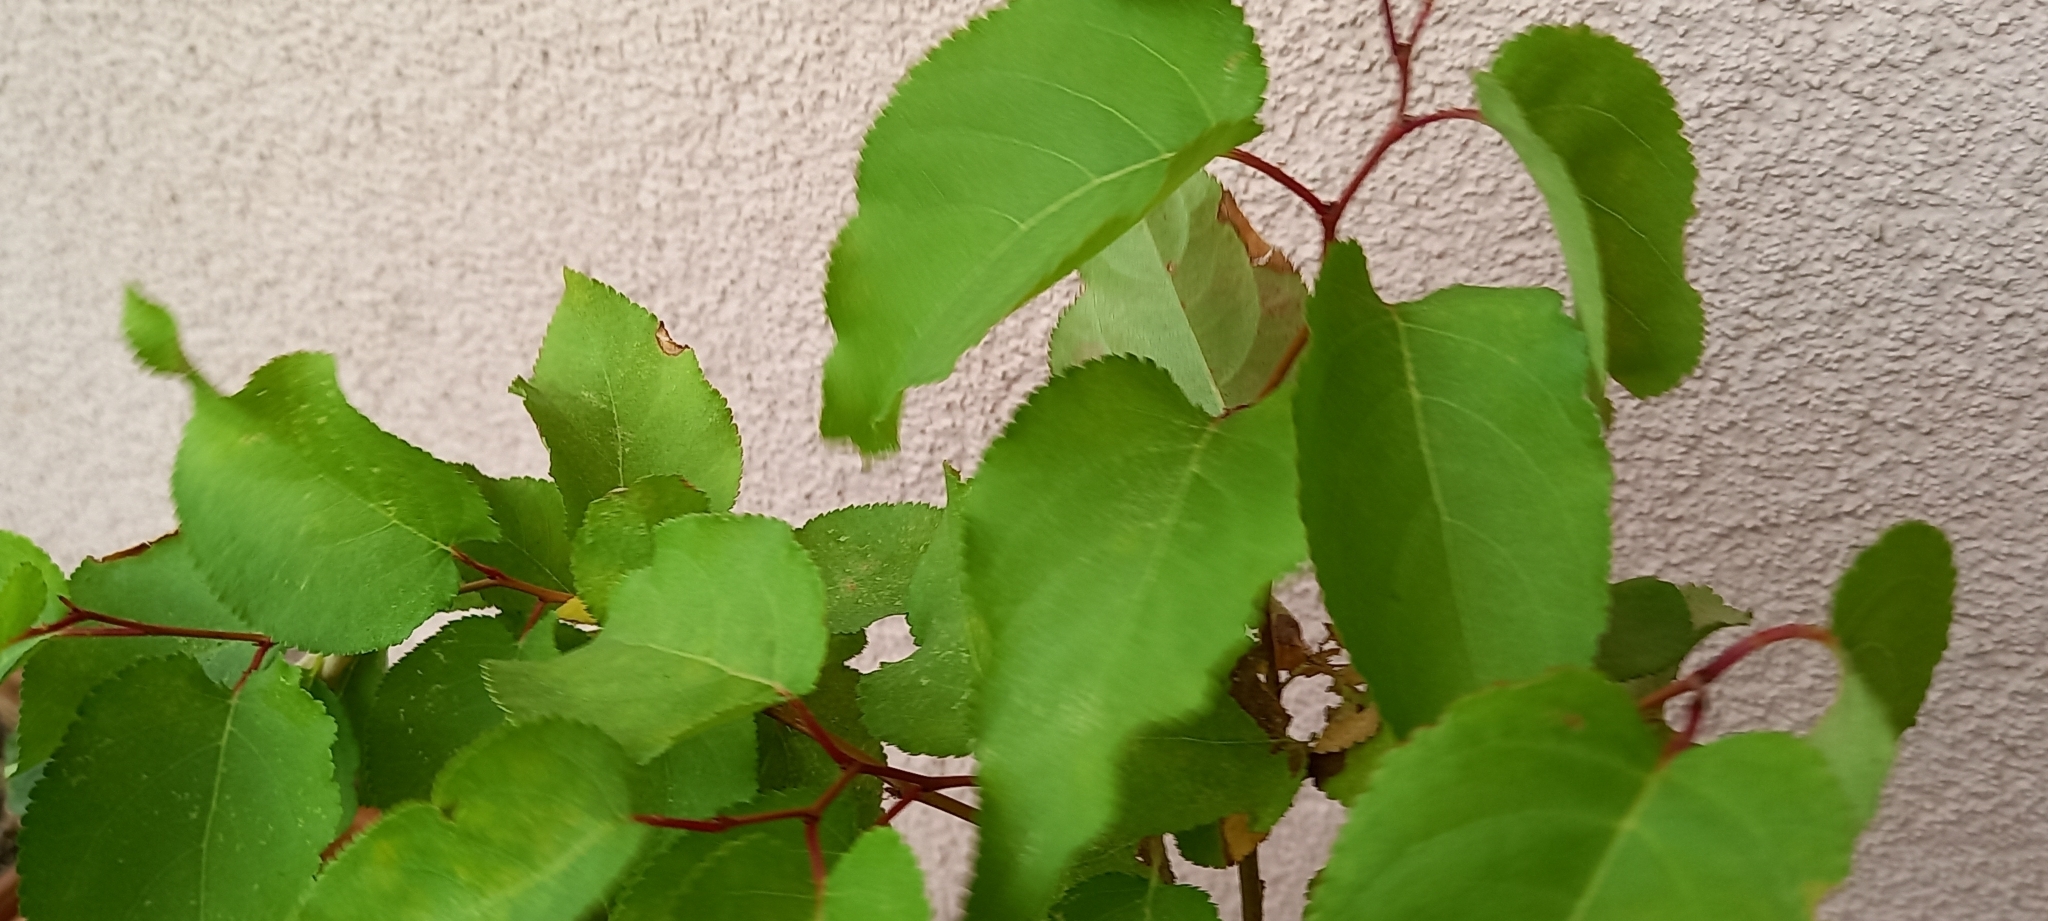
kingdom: Plantae
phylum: Tracheophyta
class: Magnoliopsida
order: Rosales
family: Rosaceae
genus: Prunus
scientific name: Prunus armeniaca
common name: Apricot
